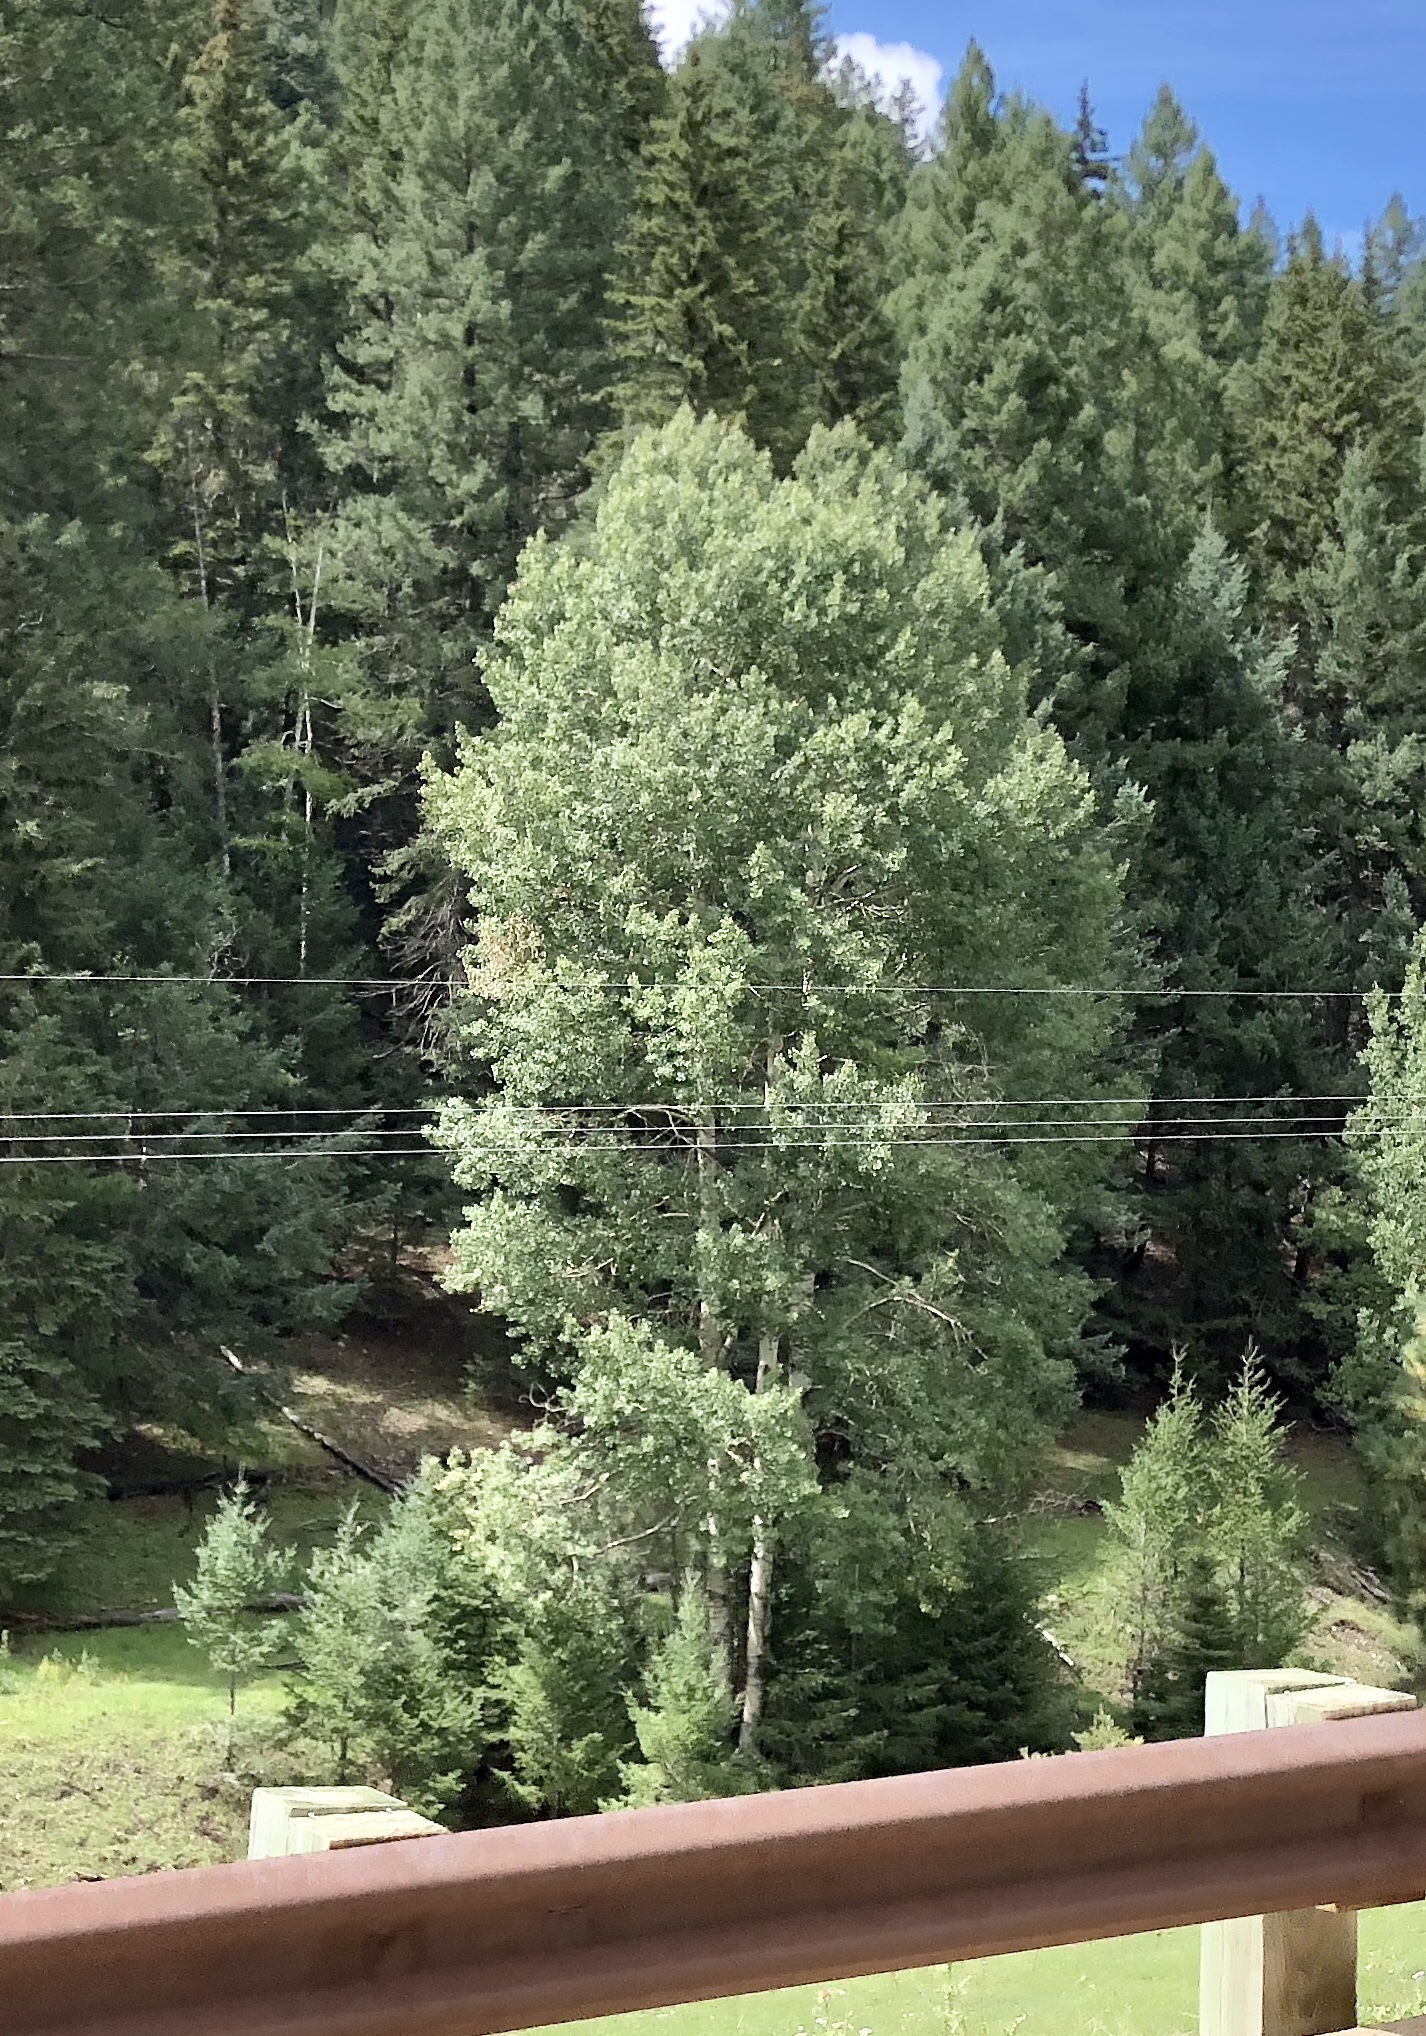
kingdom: Plantae
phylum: Tracheophyta
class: Magnoliopsida
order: Malpighiales
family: Salicaceae
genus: Populus
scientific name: Populus tremuloides
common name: Quaking aspen
